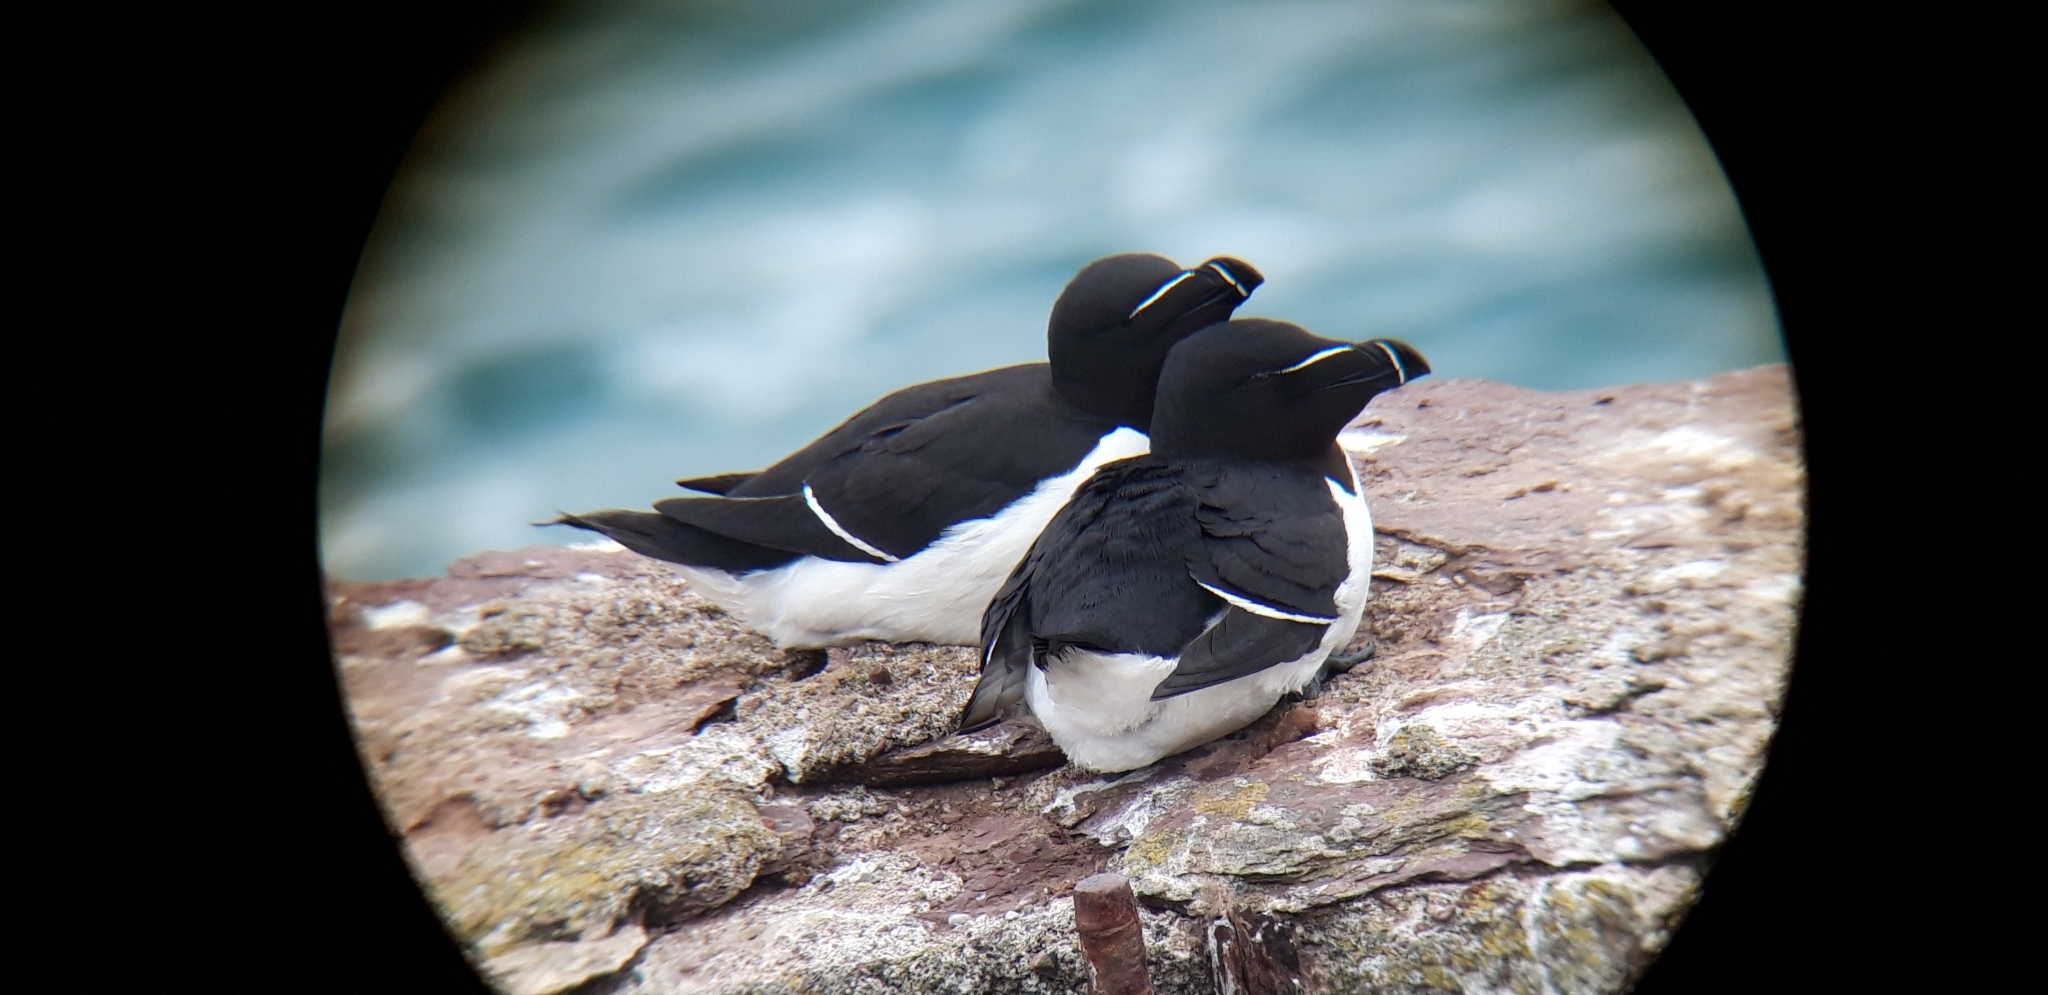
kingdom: Animalia
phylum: Chordata
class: Aves
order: Charadriiformes
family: Alcidae
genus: Alca
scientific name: Alca torda
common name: Razorbill
